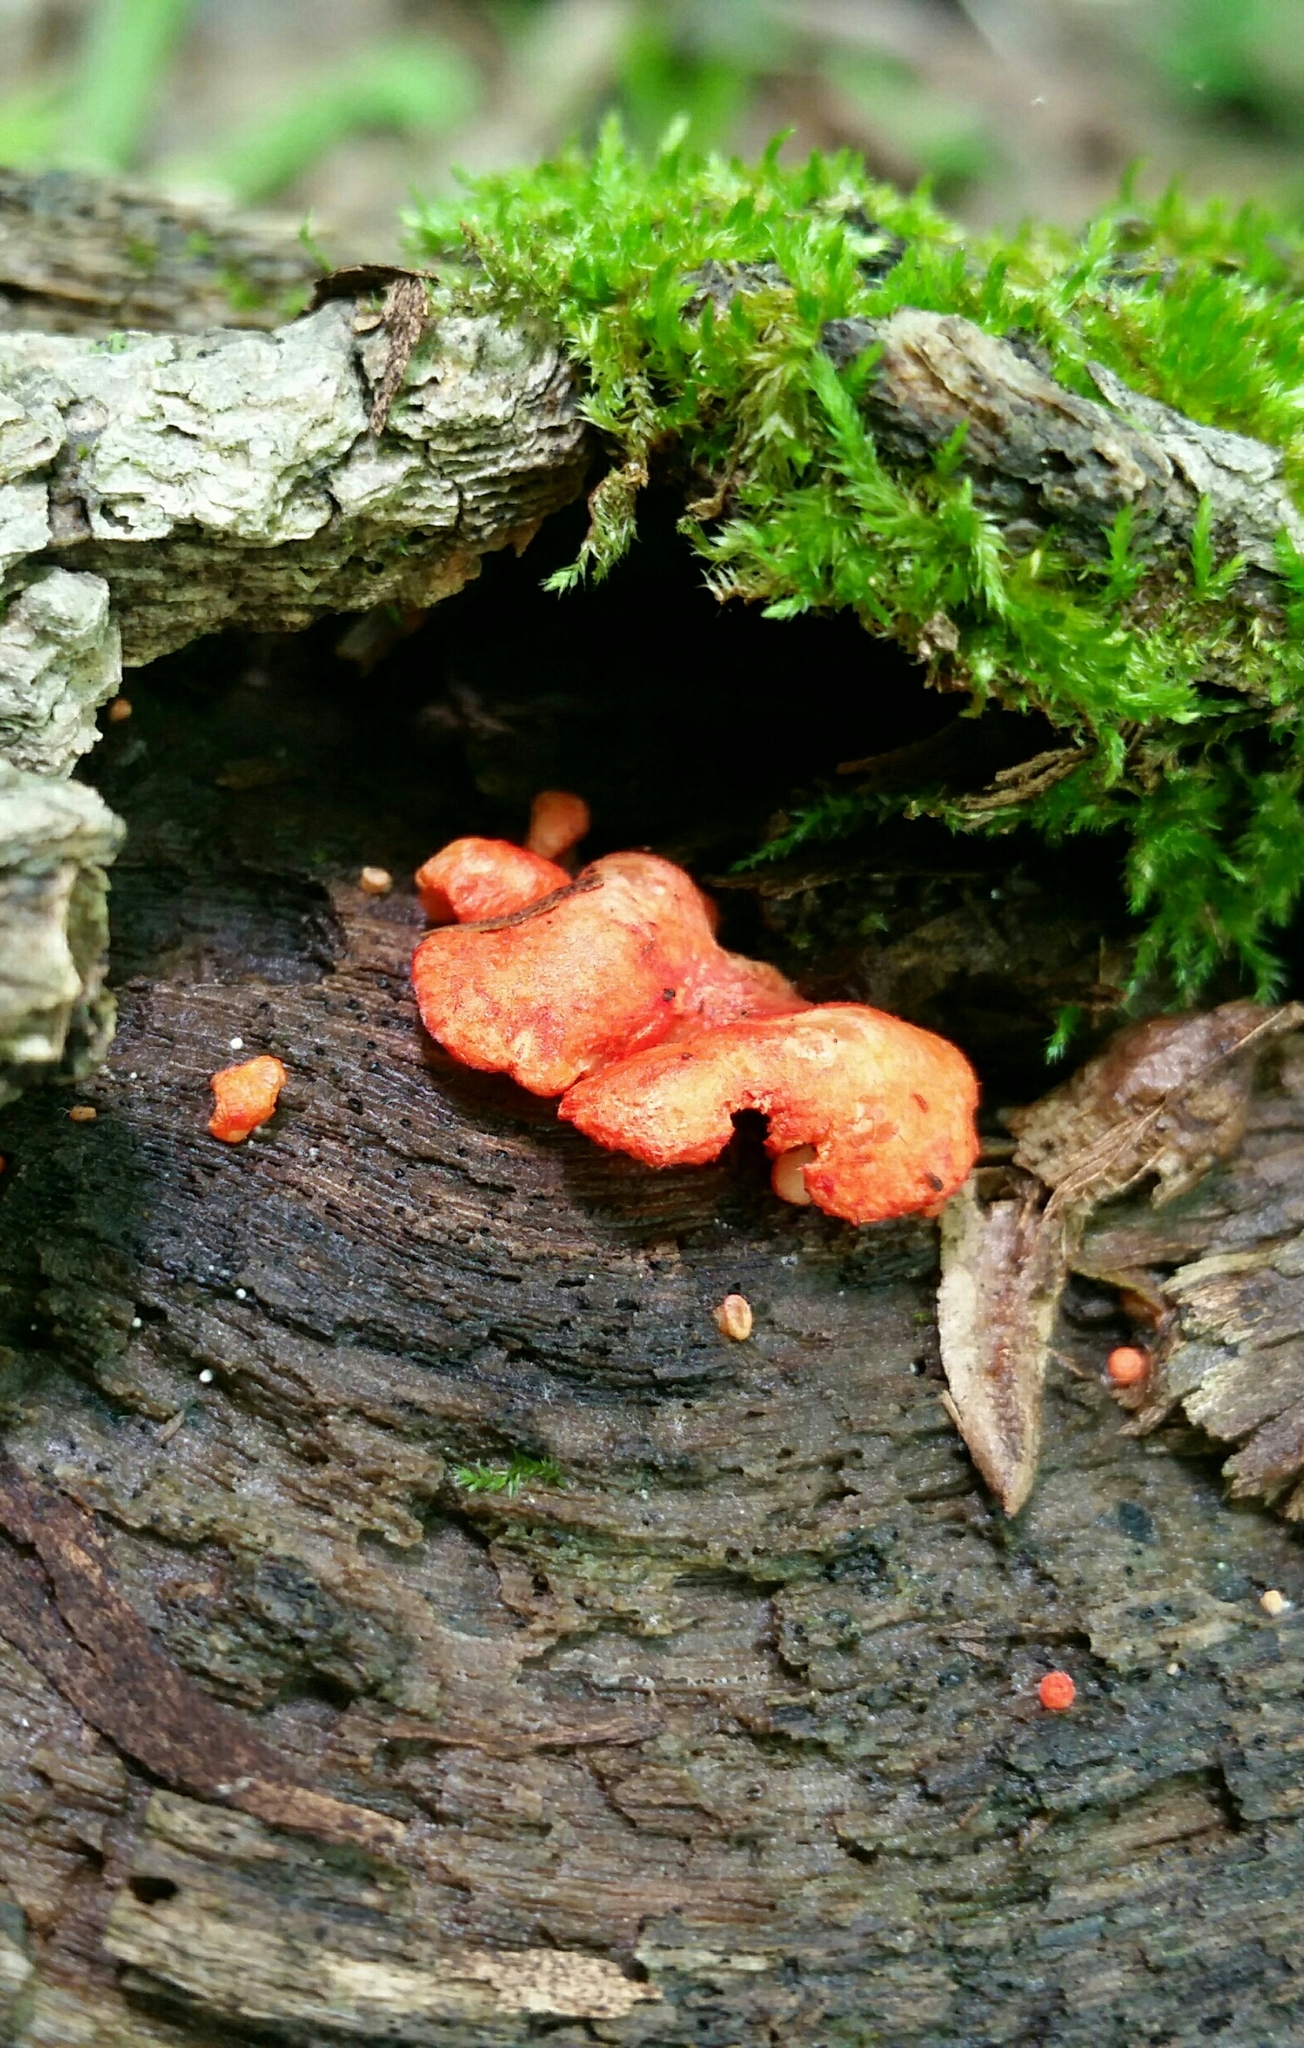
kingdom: Fungi
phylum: Basidiomycota
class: Agaricomycetes
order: Agaricales
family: Crepidotaceae
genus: Crepidotus
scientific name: Crepidotus cinnabarinus
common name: Cinnabar oysterling
